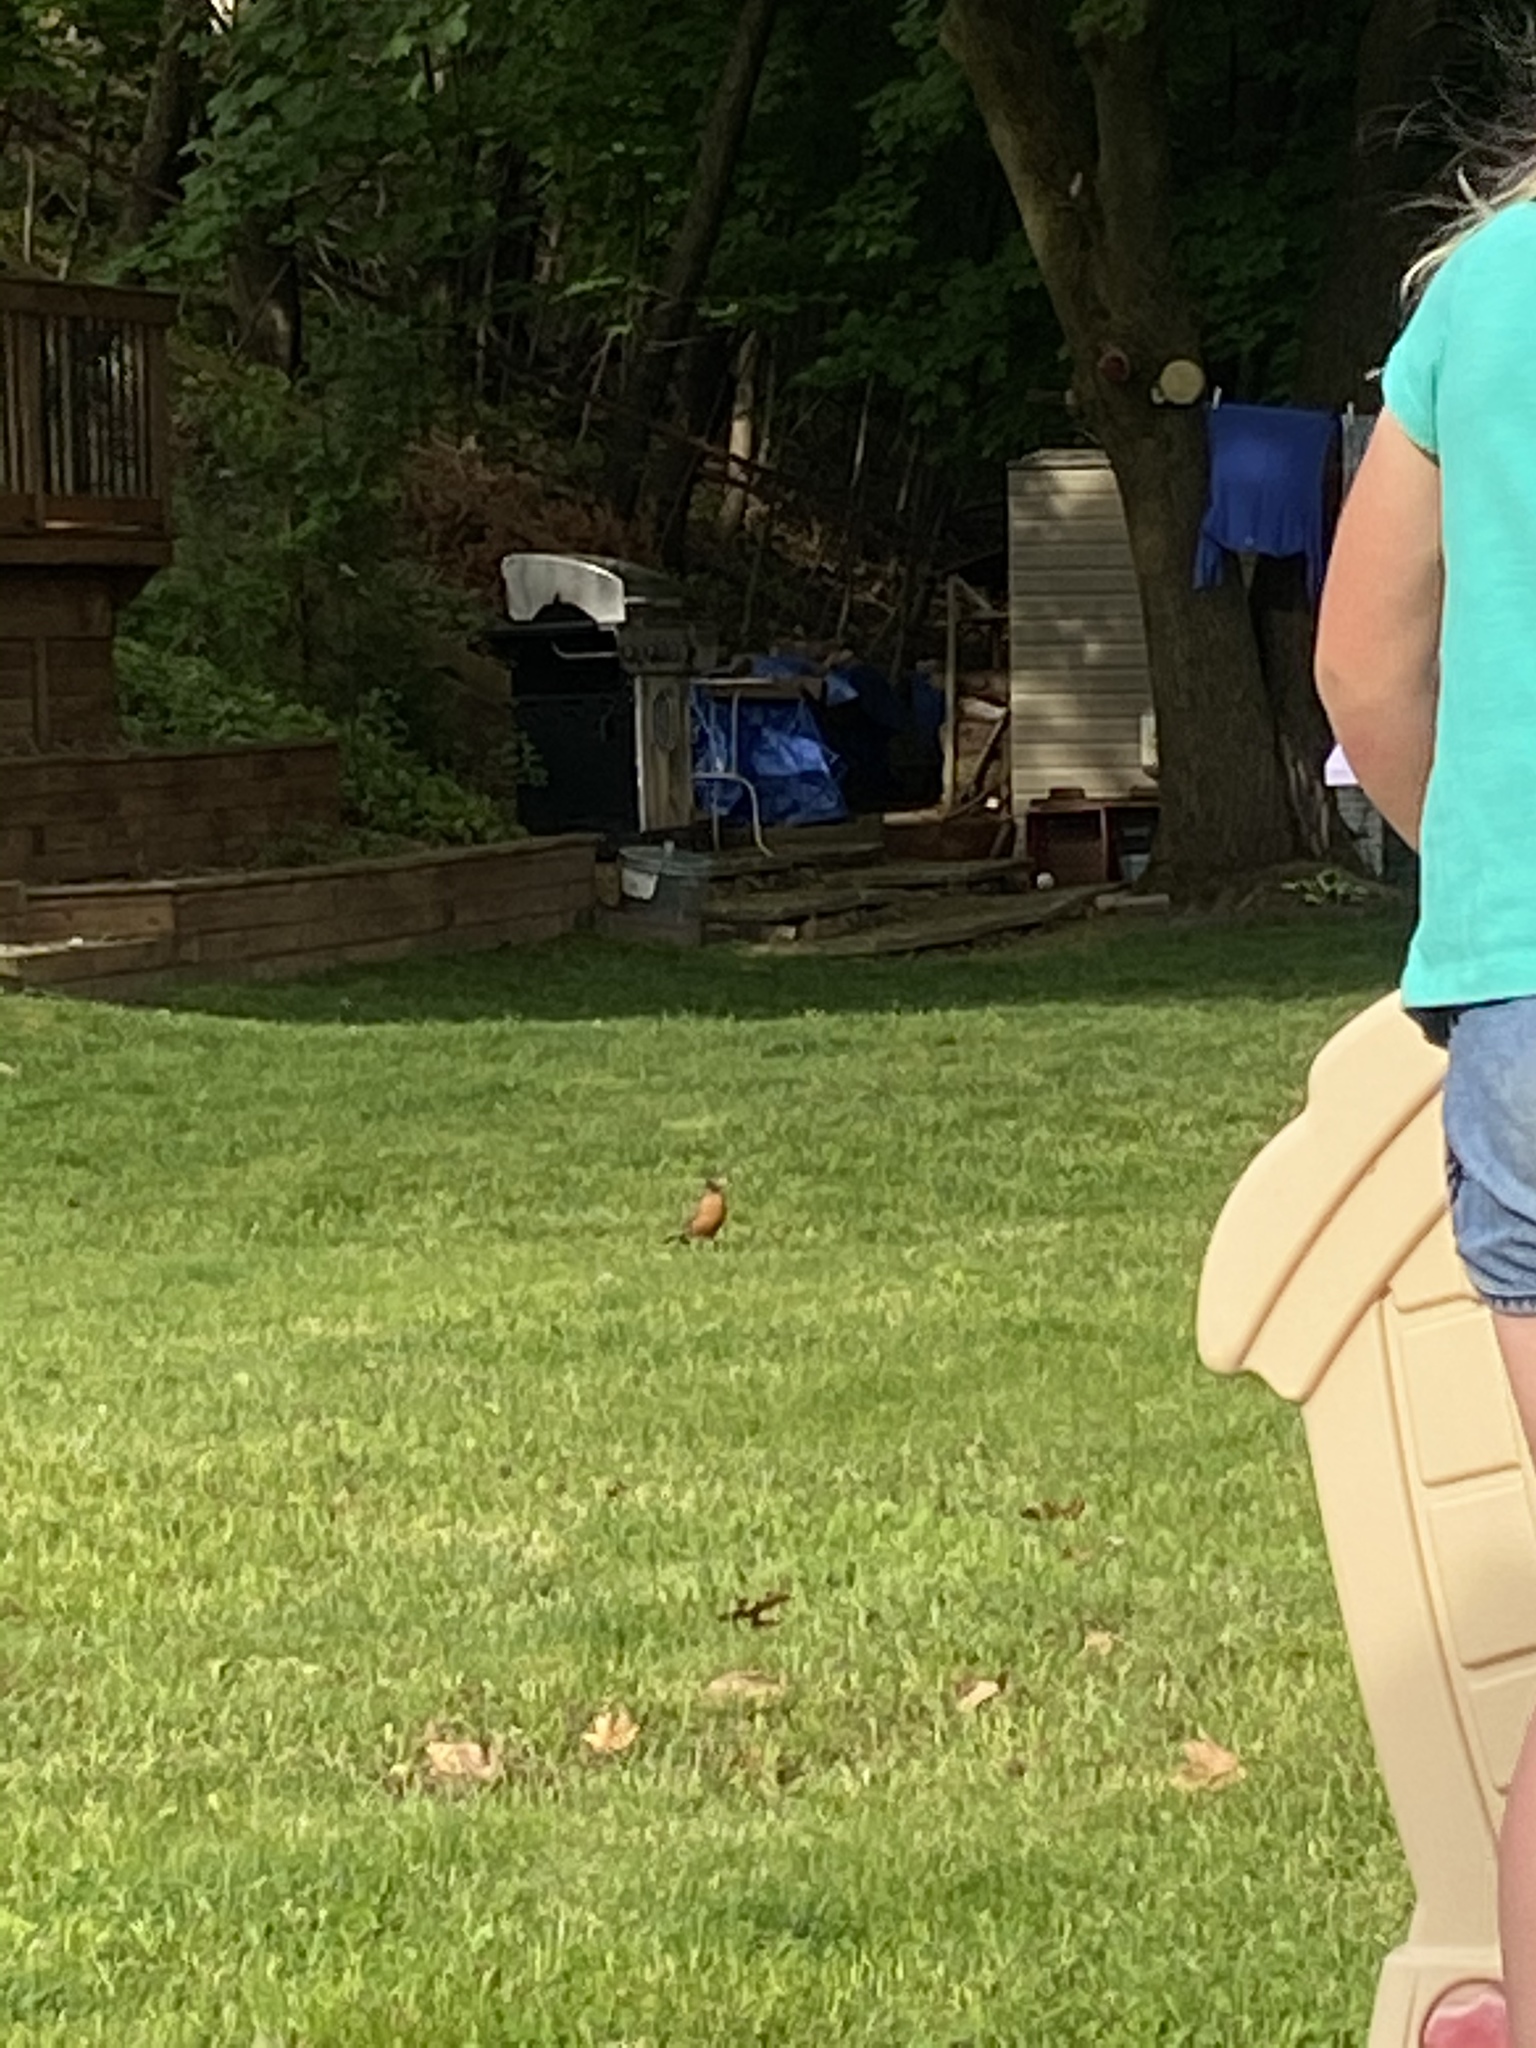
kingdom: Animalia
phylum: Chordata
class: Aves
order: Passeriformes
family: Turdidae
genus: Turdus
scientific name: Turdus migratorius
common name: American robin
